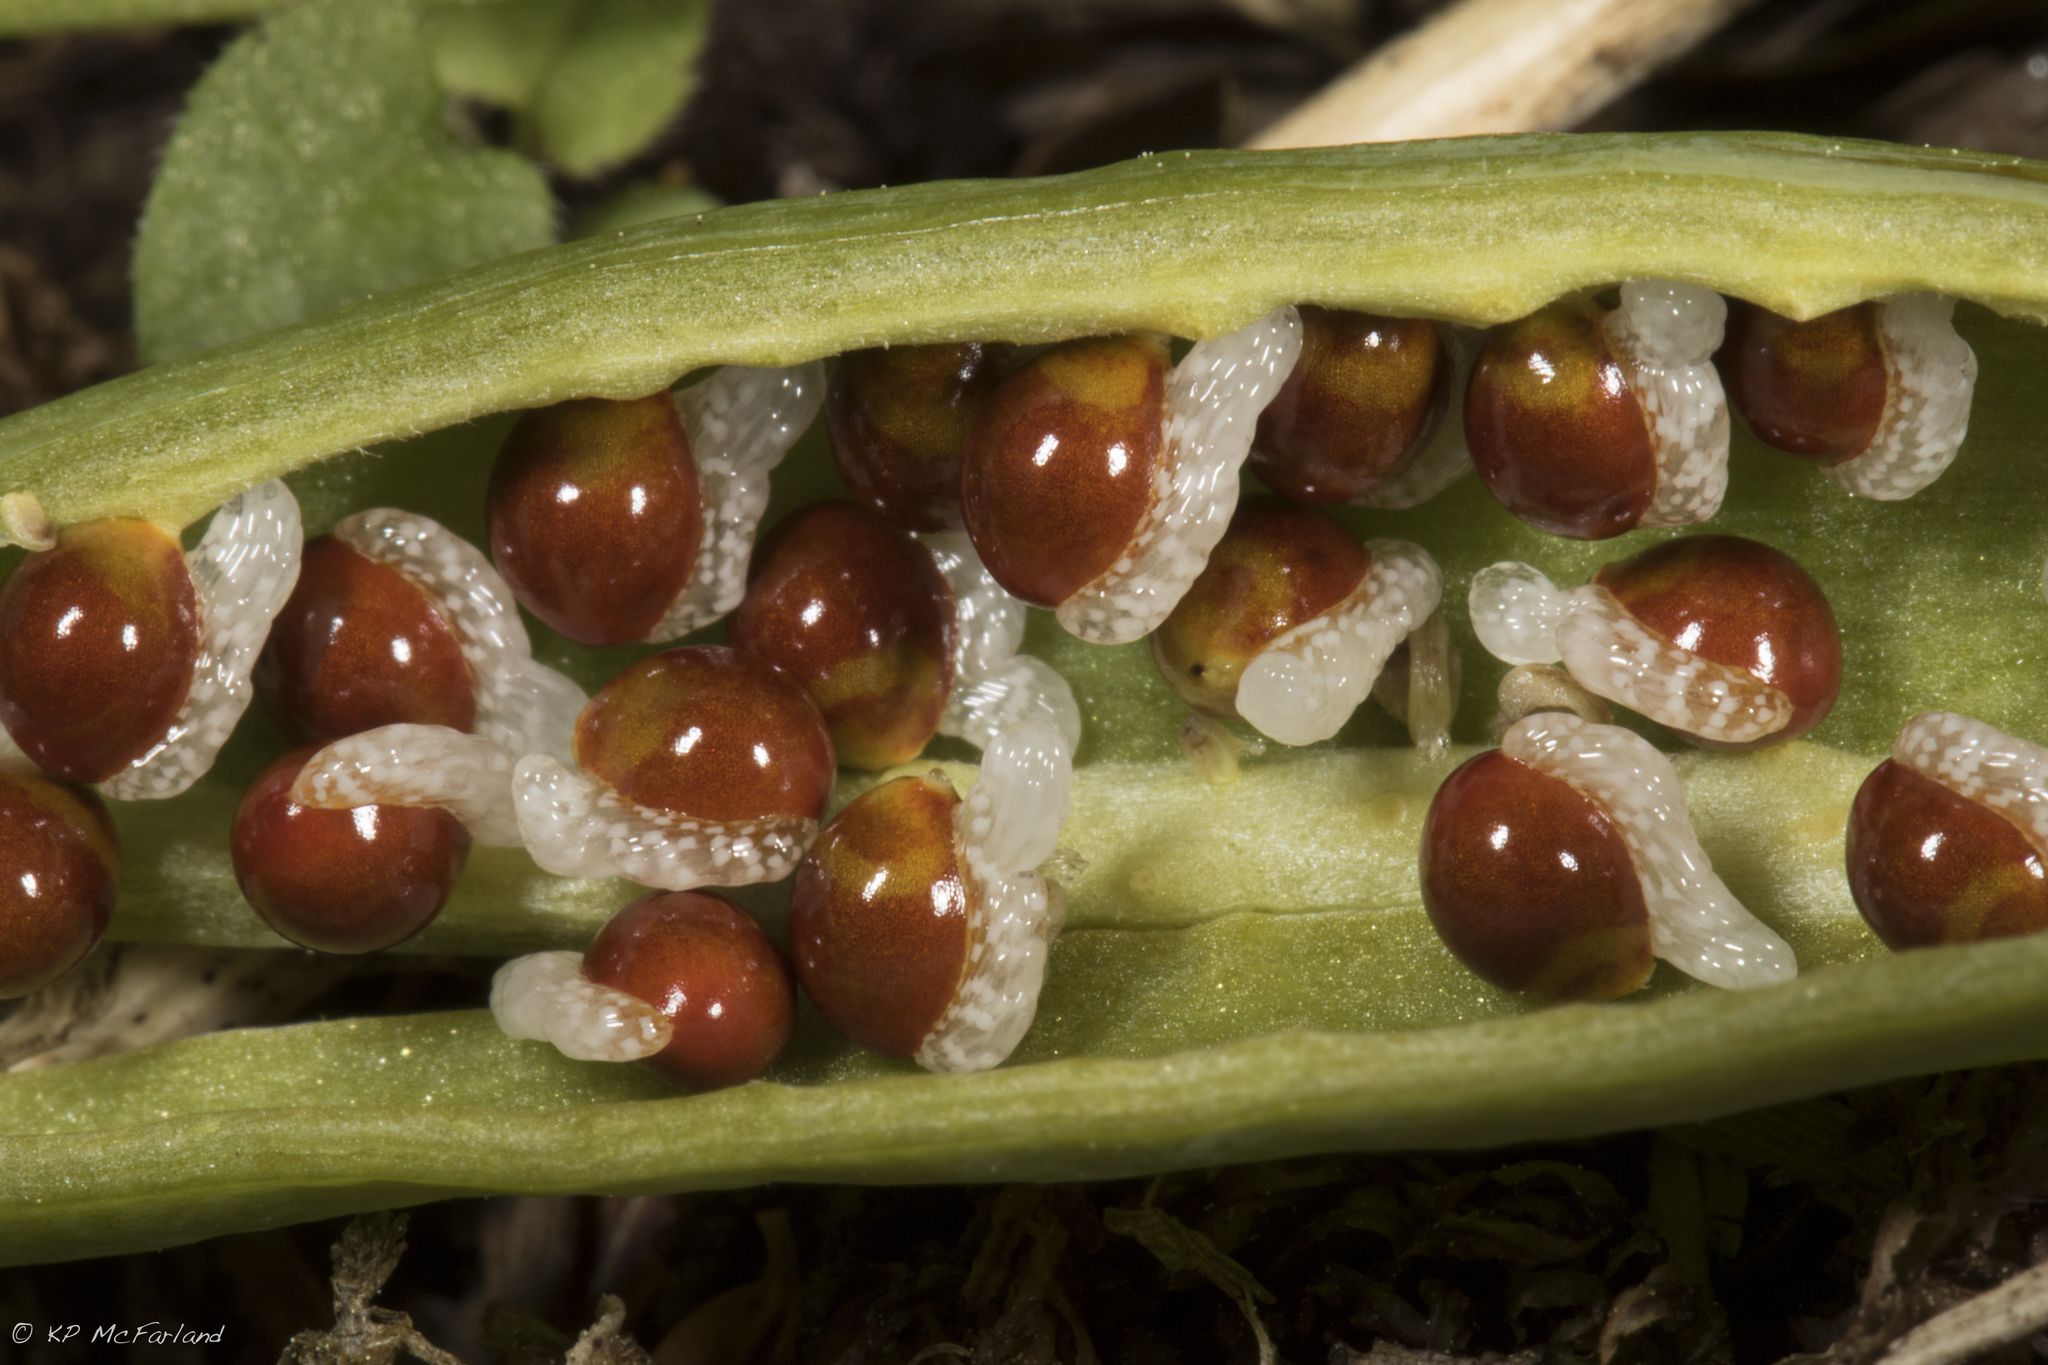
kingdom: Plantae
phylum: Tracheophyta
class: Magnoliopsida
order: Ranunculales
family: Papaveraceae
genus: Sanguinaria
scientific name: Sanguinaria canadensis
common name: Bloodroot
